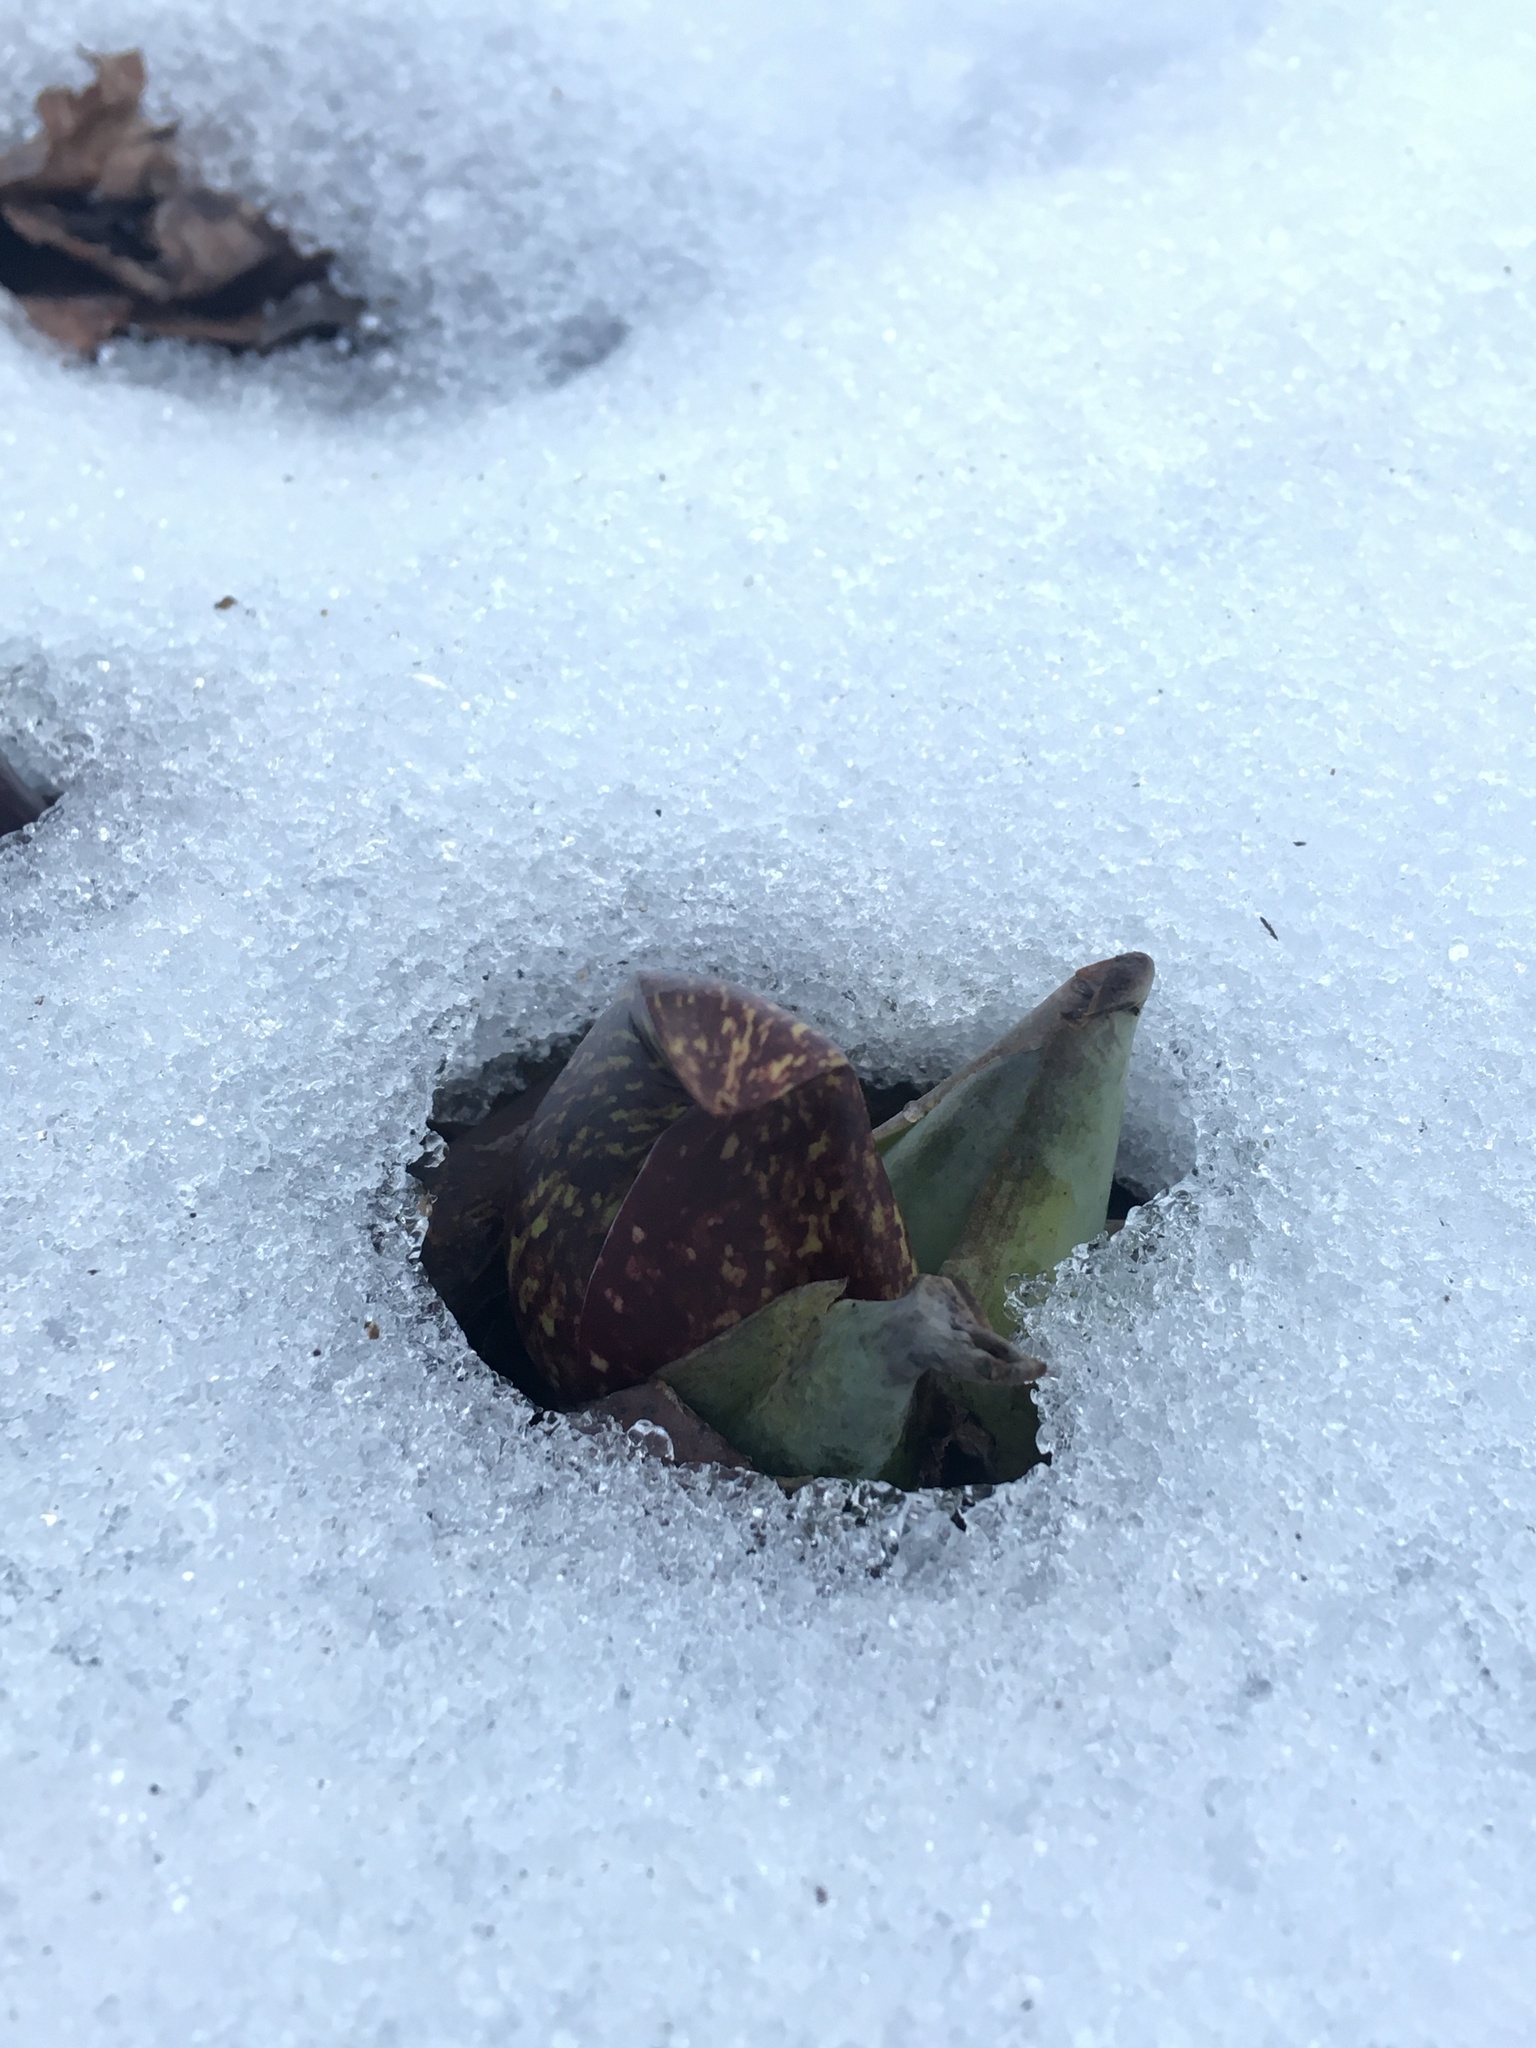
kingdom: Plantae
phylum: Tracheophyta
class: Liliopsida
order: Alismatales
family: Araceae
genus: Symplocarpus
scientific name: Symplocarpus foetidus
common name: Eastern skunk cabbage
